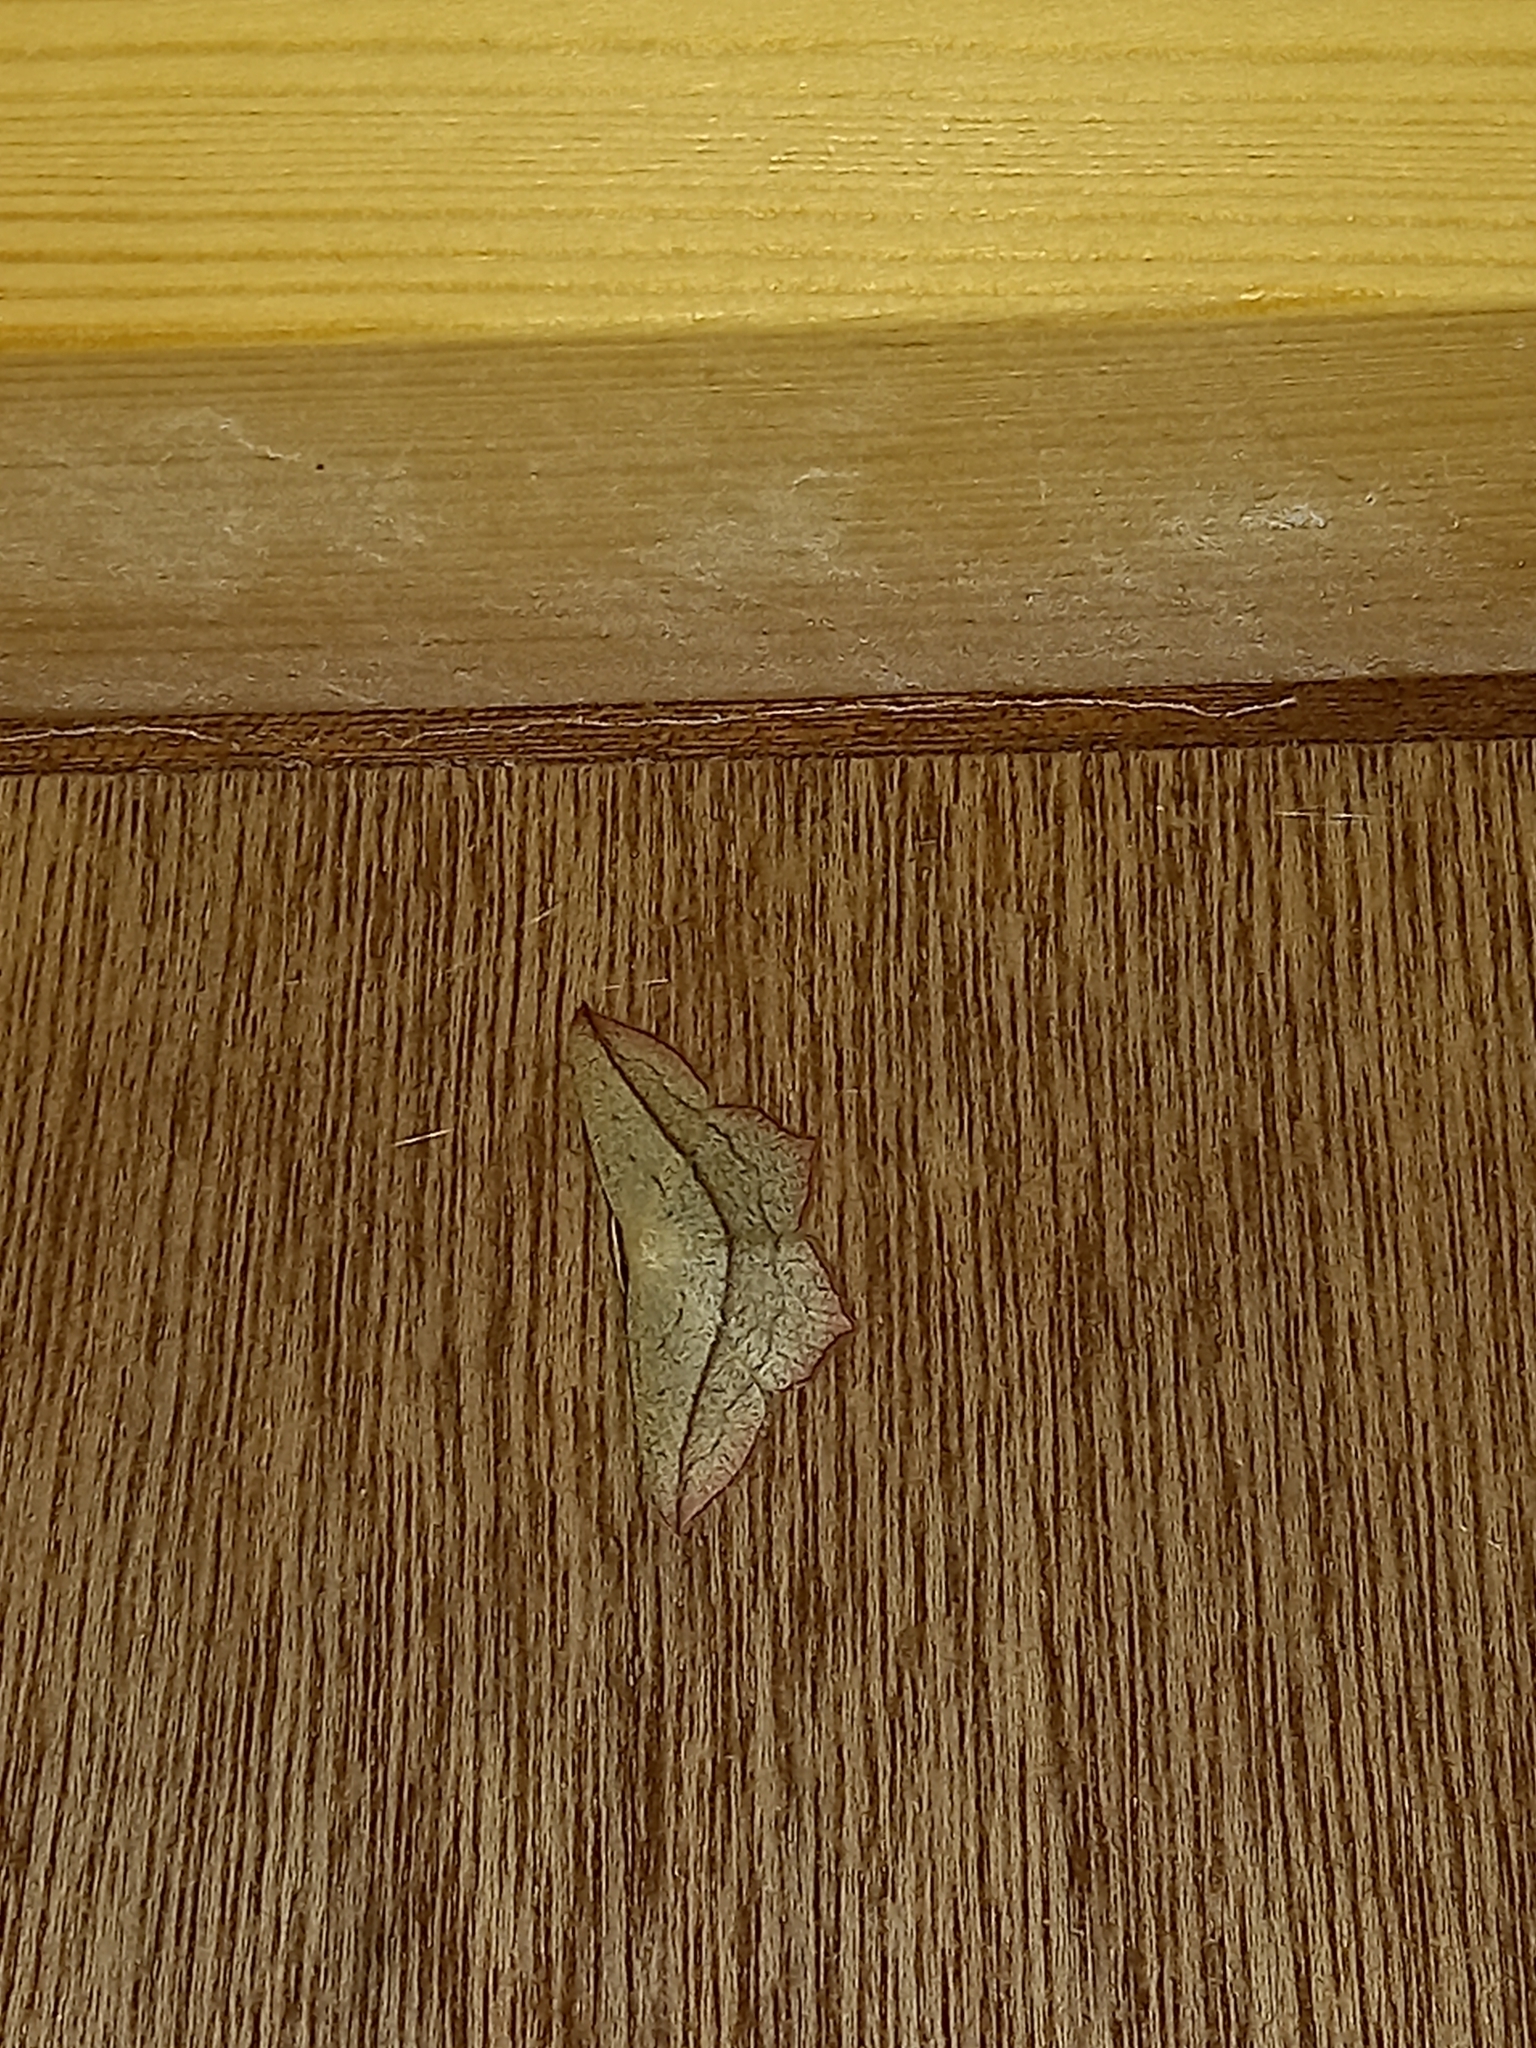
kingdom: Animalia
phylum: Arthropoda
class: Insecta
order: Lepidoptera
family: Geometridae
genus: Timandra
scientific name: Timandra comae
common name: Blood-vein
